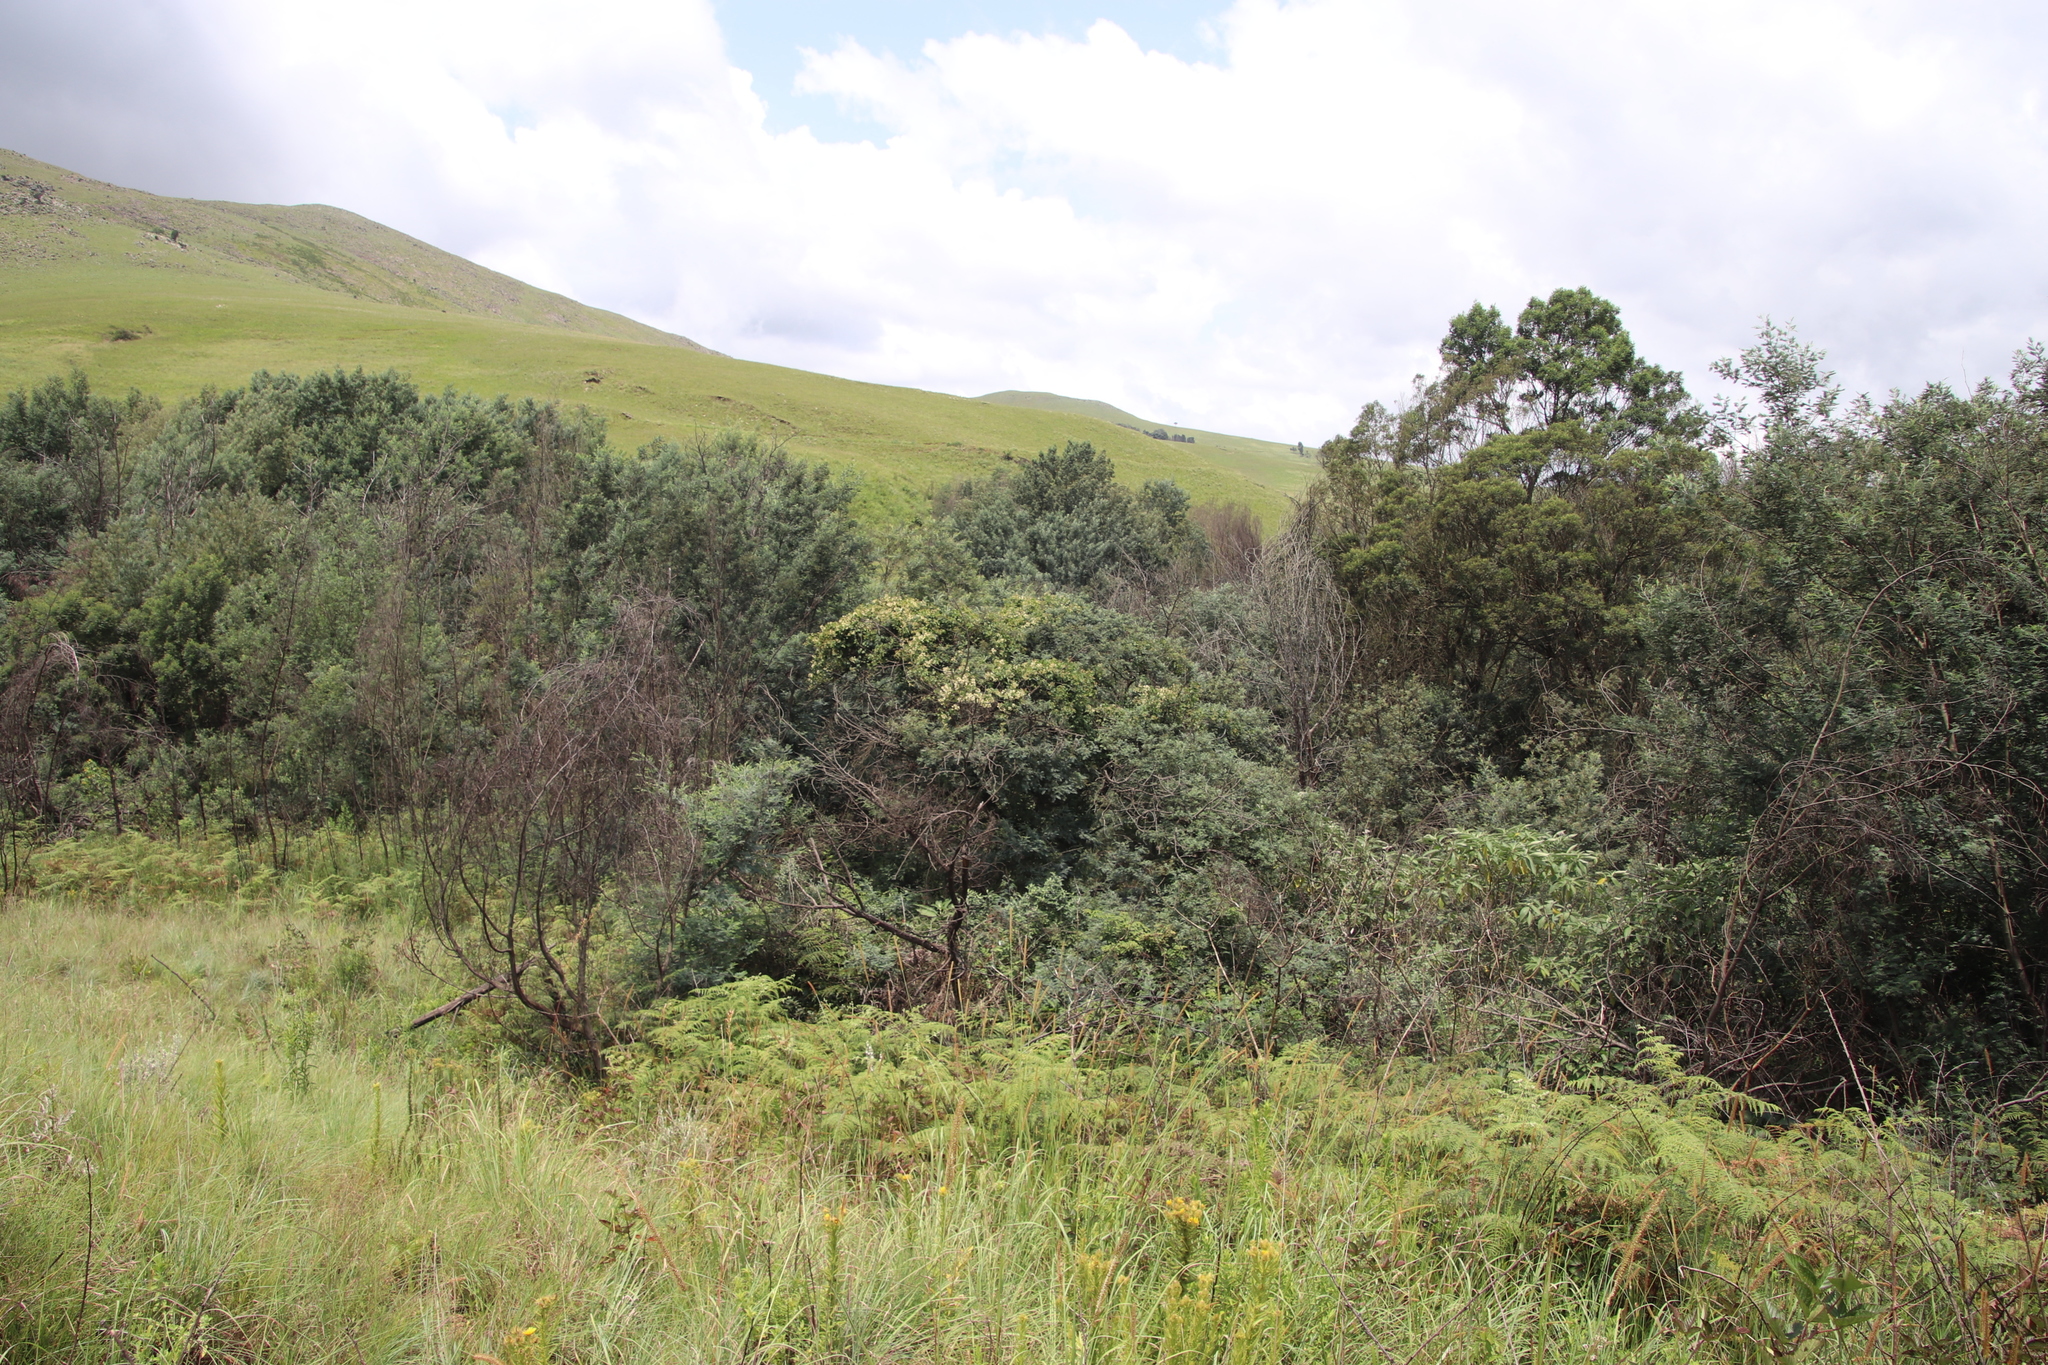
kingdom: Plantae
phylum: Tracheophyta
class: Magnoliopsida
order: Ranunculales
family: Ranunculaceae
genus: Clematis
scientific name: Clematis brachiata
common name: Traveler's-joy
